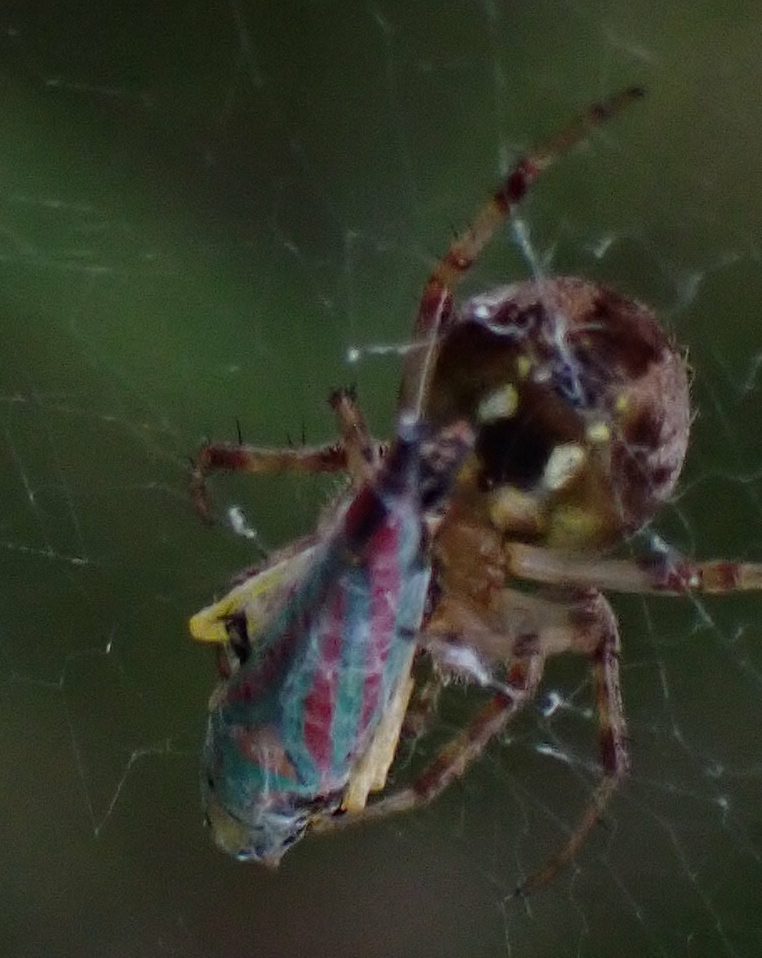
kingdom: Animalia
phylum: Arthropoda
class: Insecta
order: Hemiptera
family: Cicadellidae
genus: Graphocephala
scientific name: Graphocephala coccinea
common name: Candy-striped leafhopper
